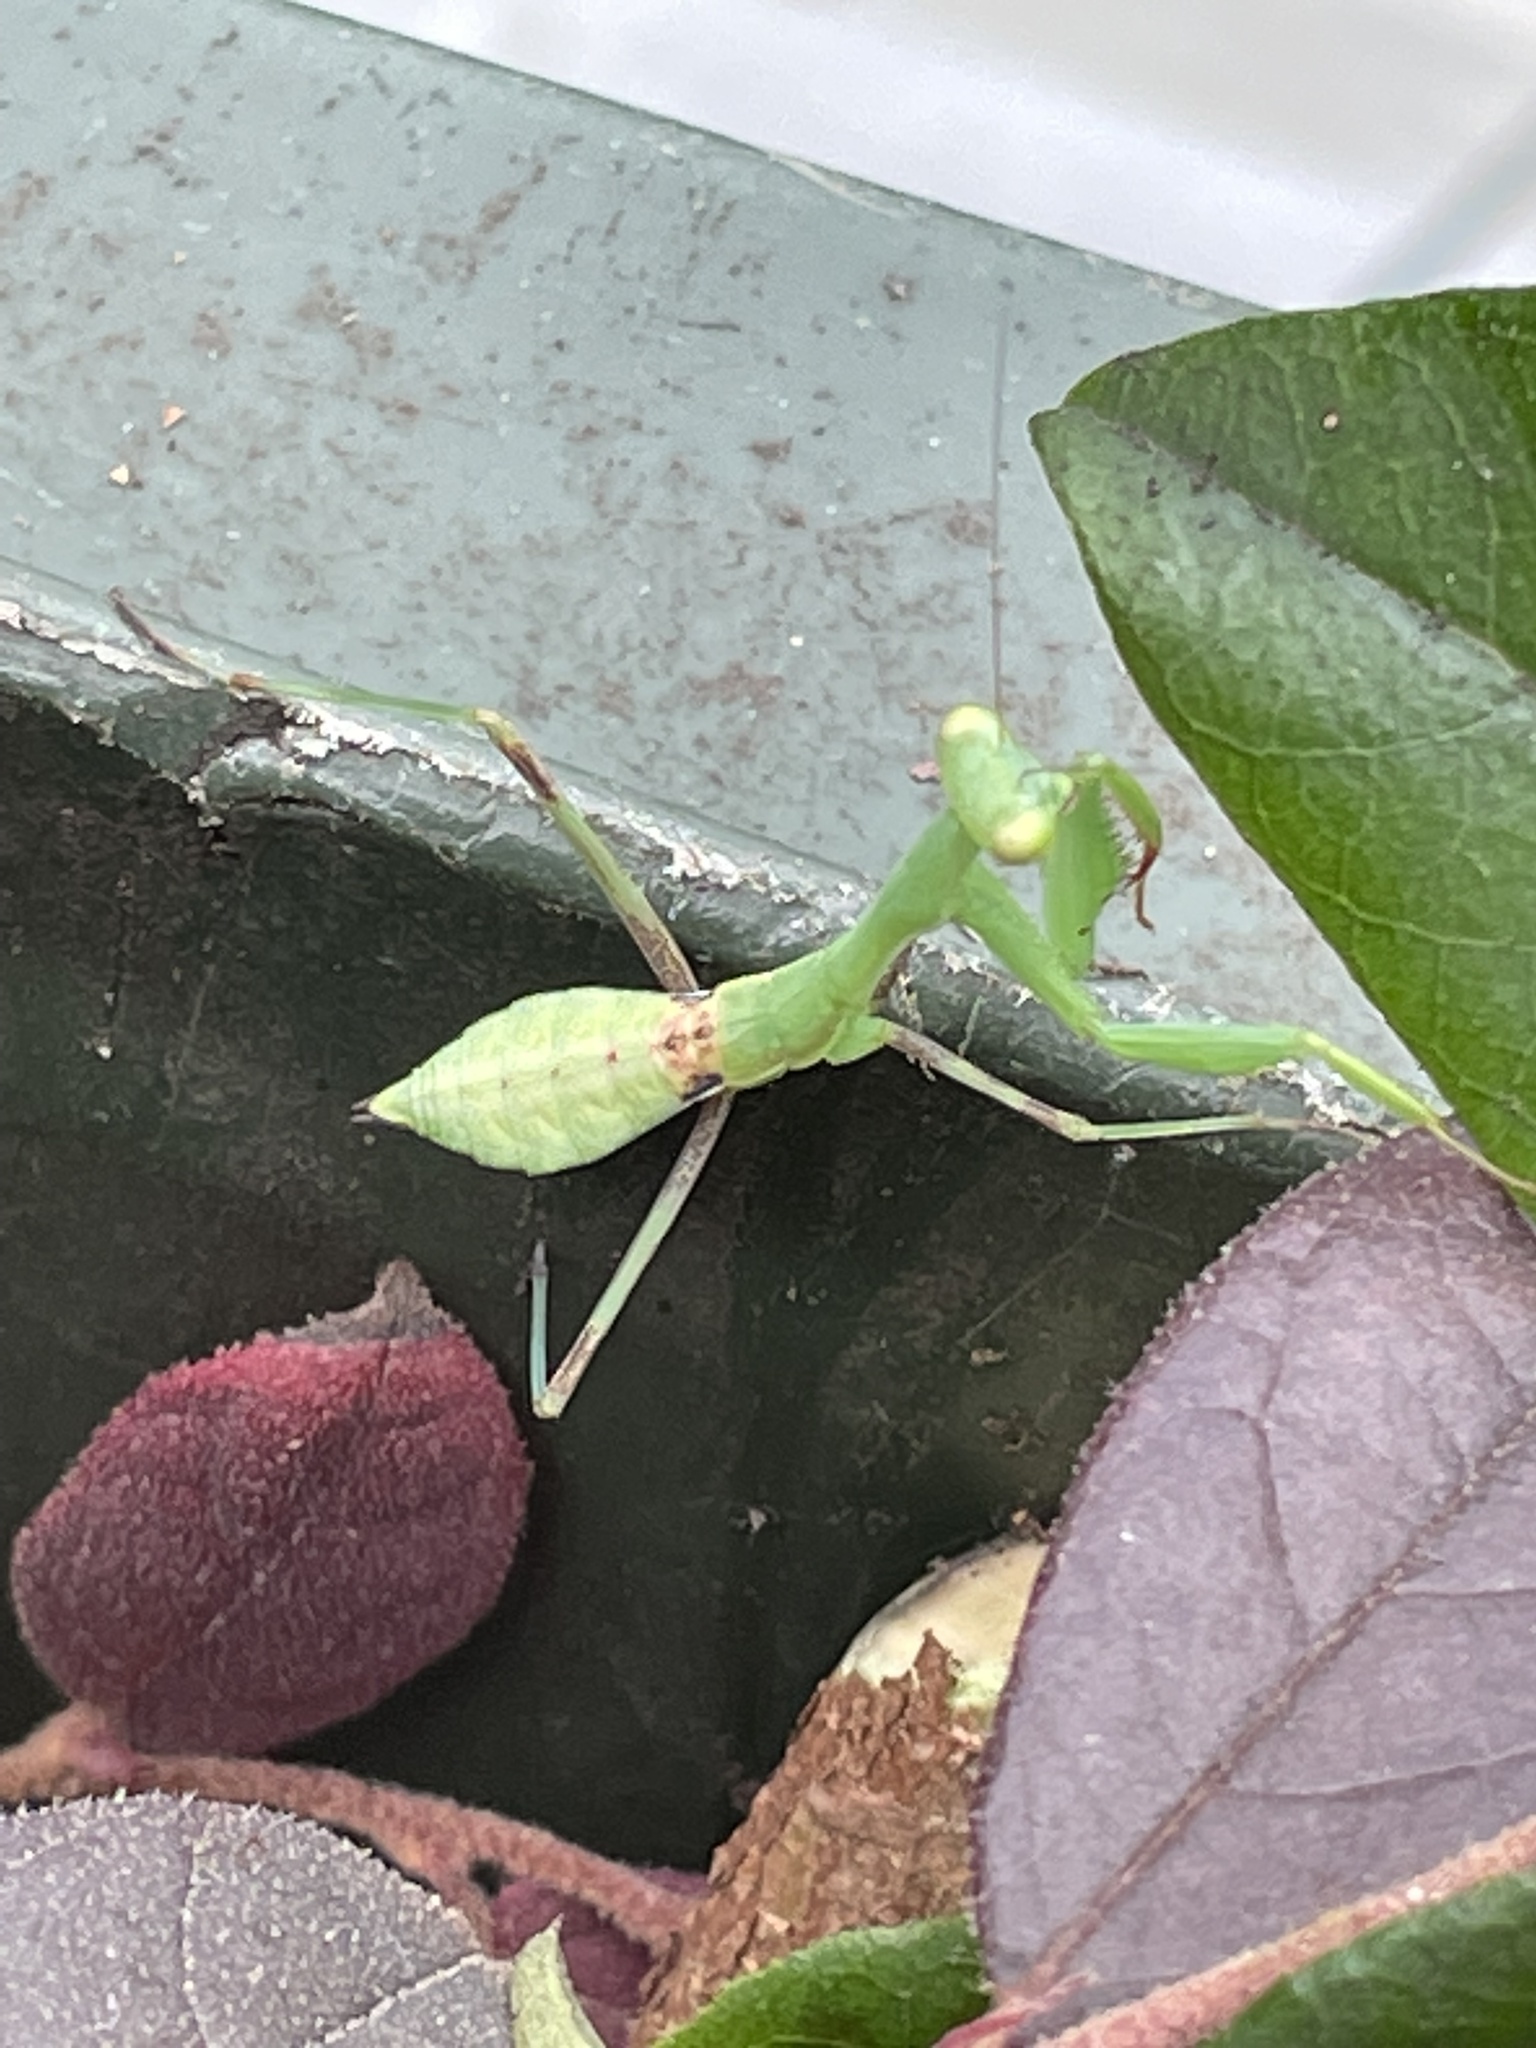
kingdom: Animalia
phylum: Arthropoda
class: Insecta
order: Mantodea
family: Miomantidae
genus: Miomantis
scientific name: Miomantis caffra
